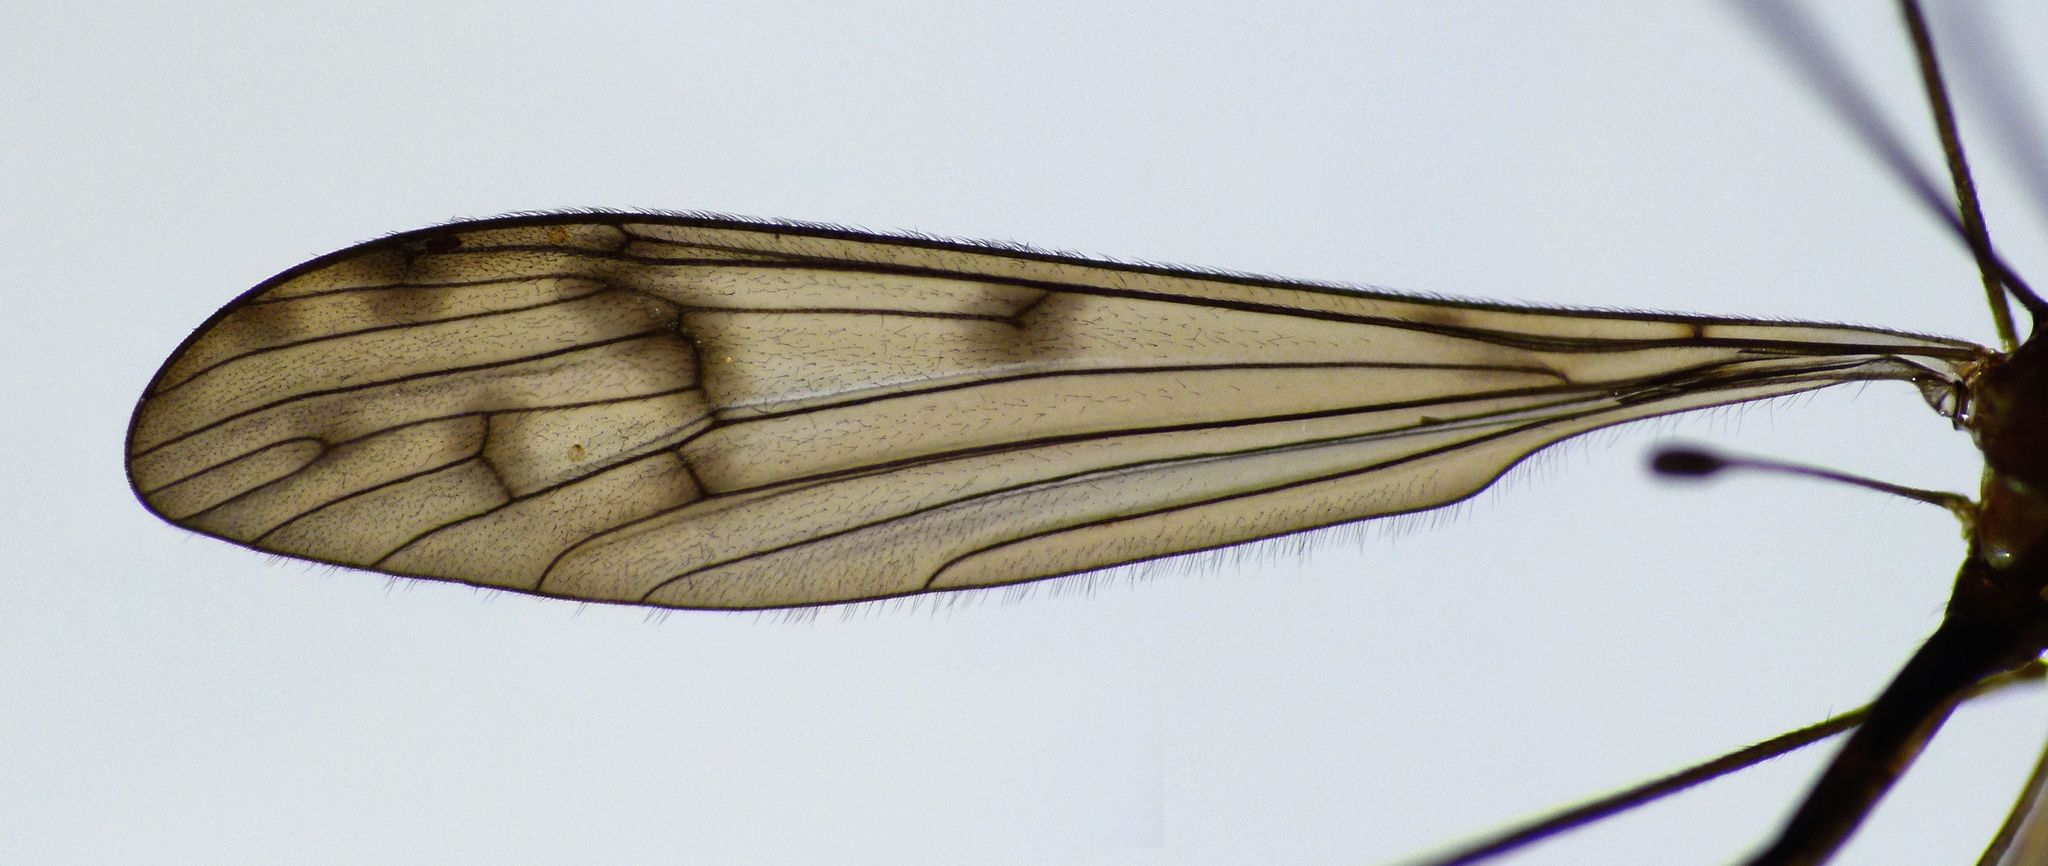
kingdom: Animalia
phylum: Arthropoda
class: Insecta
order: Diptera
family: Limoniidae
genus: Nothophila
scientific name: Nothophila fuscana
